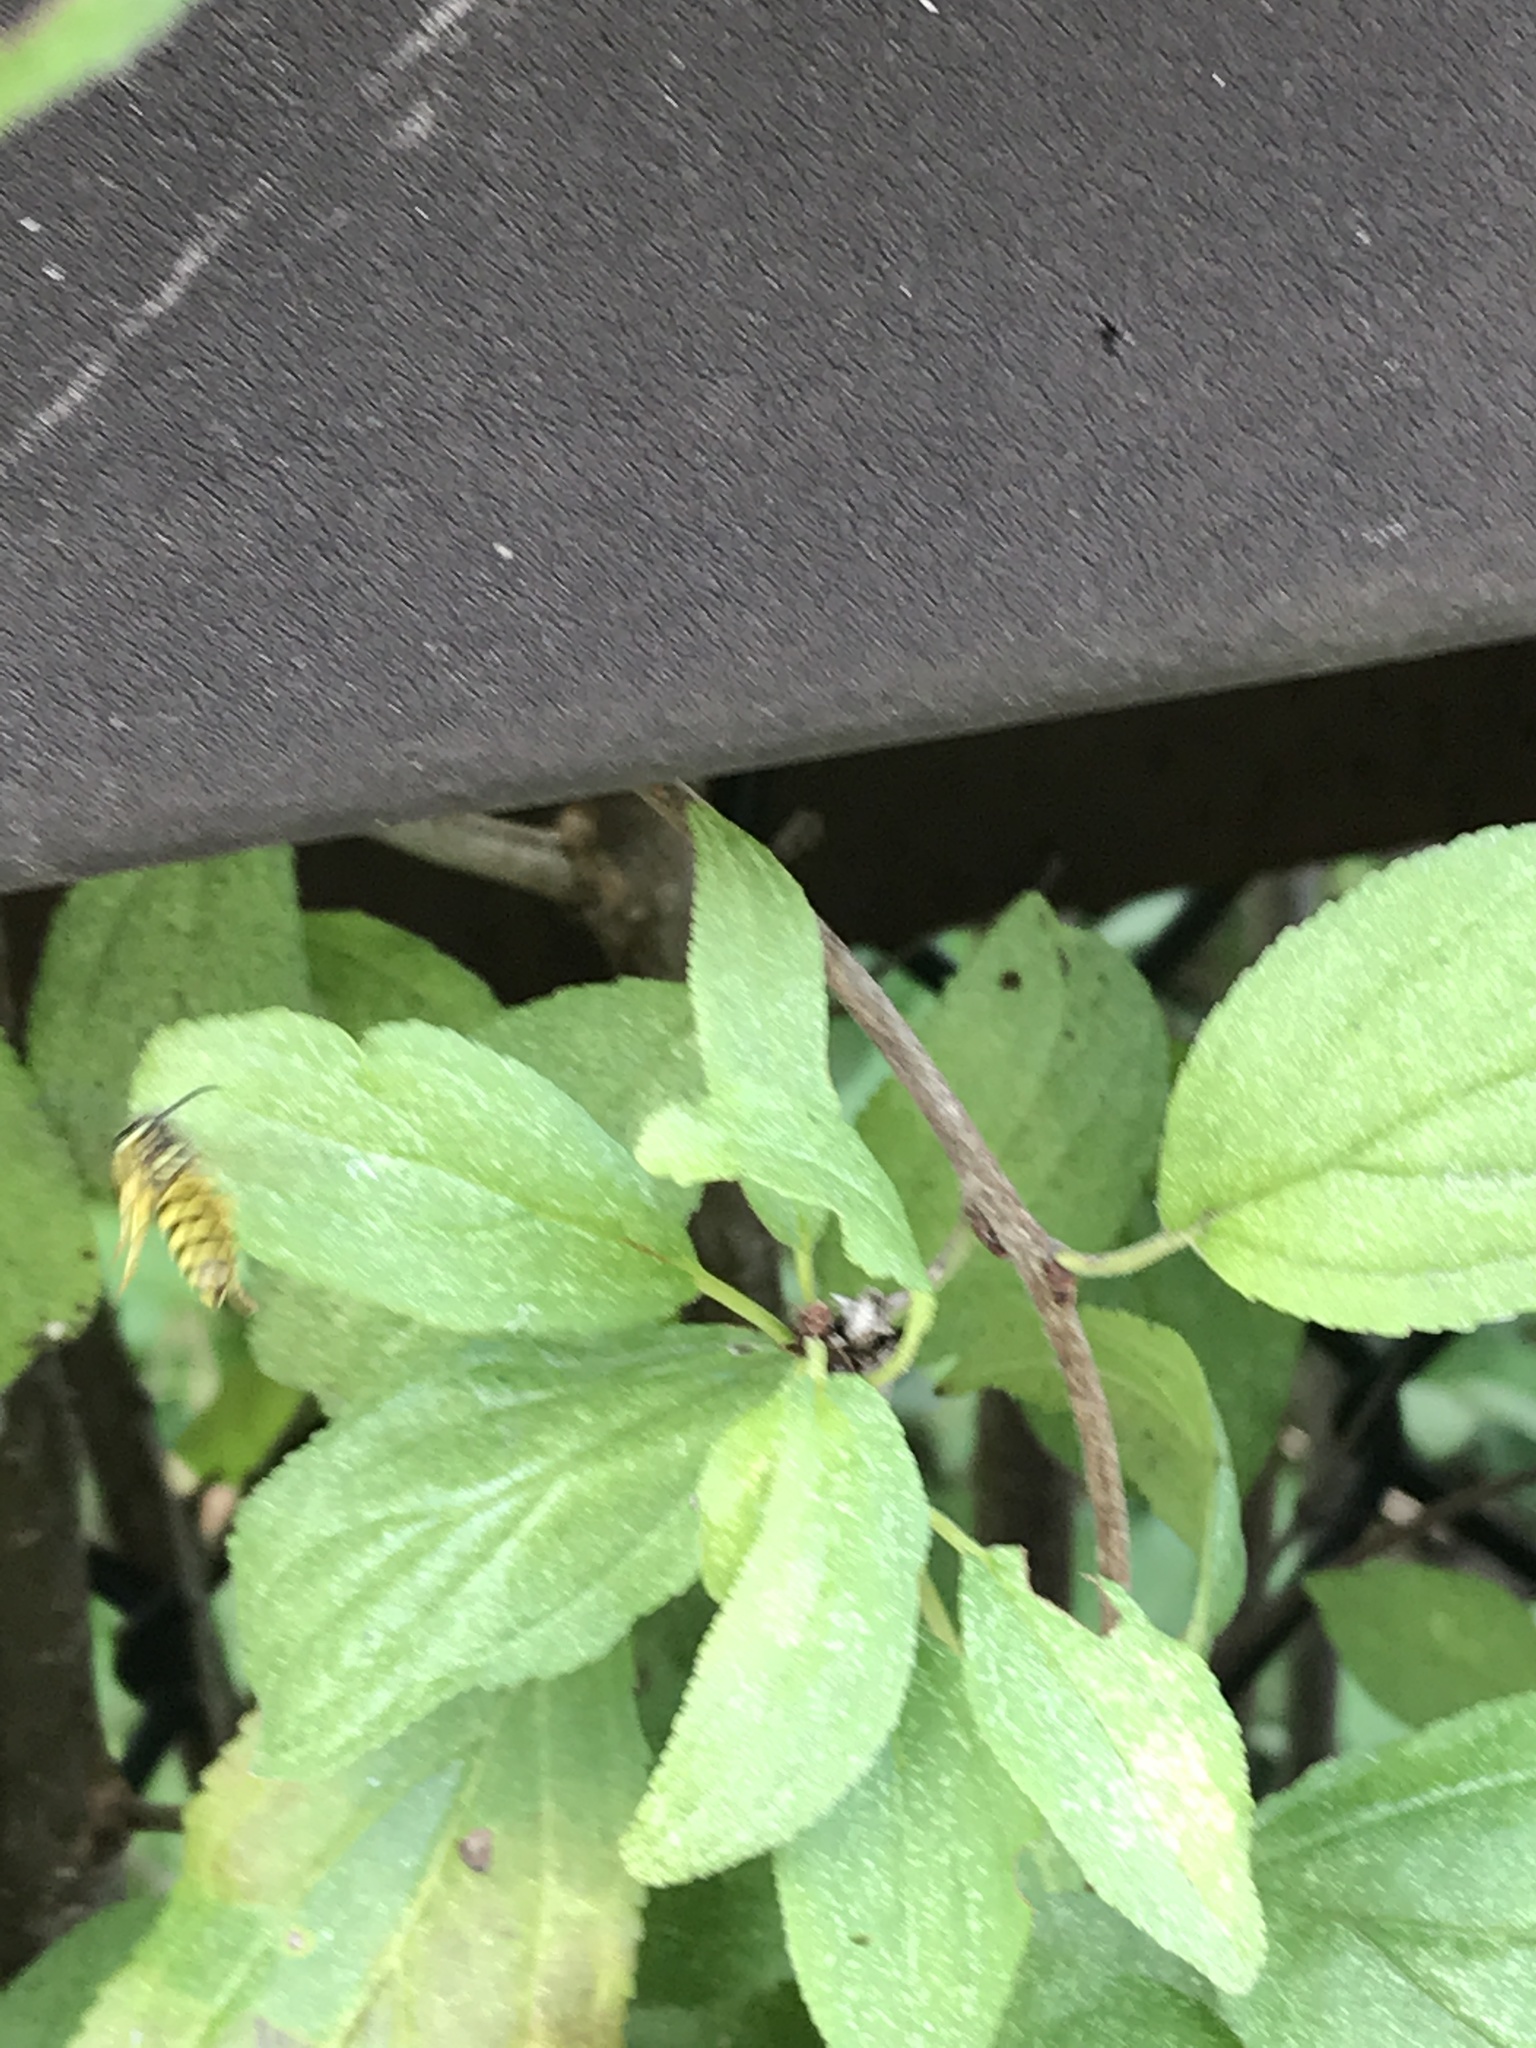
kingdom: Animalia
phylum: Arthropoda
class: Insecta
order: Hymenoptera
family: Vespidae
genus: Dolichovespula
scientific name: Dolichovespula
